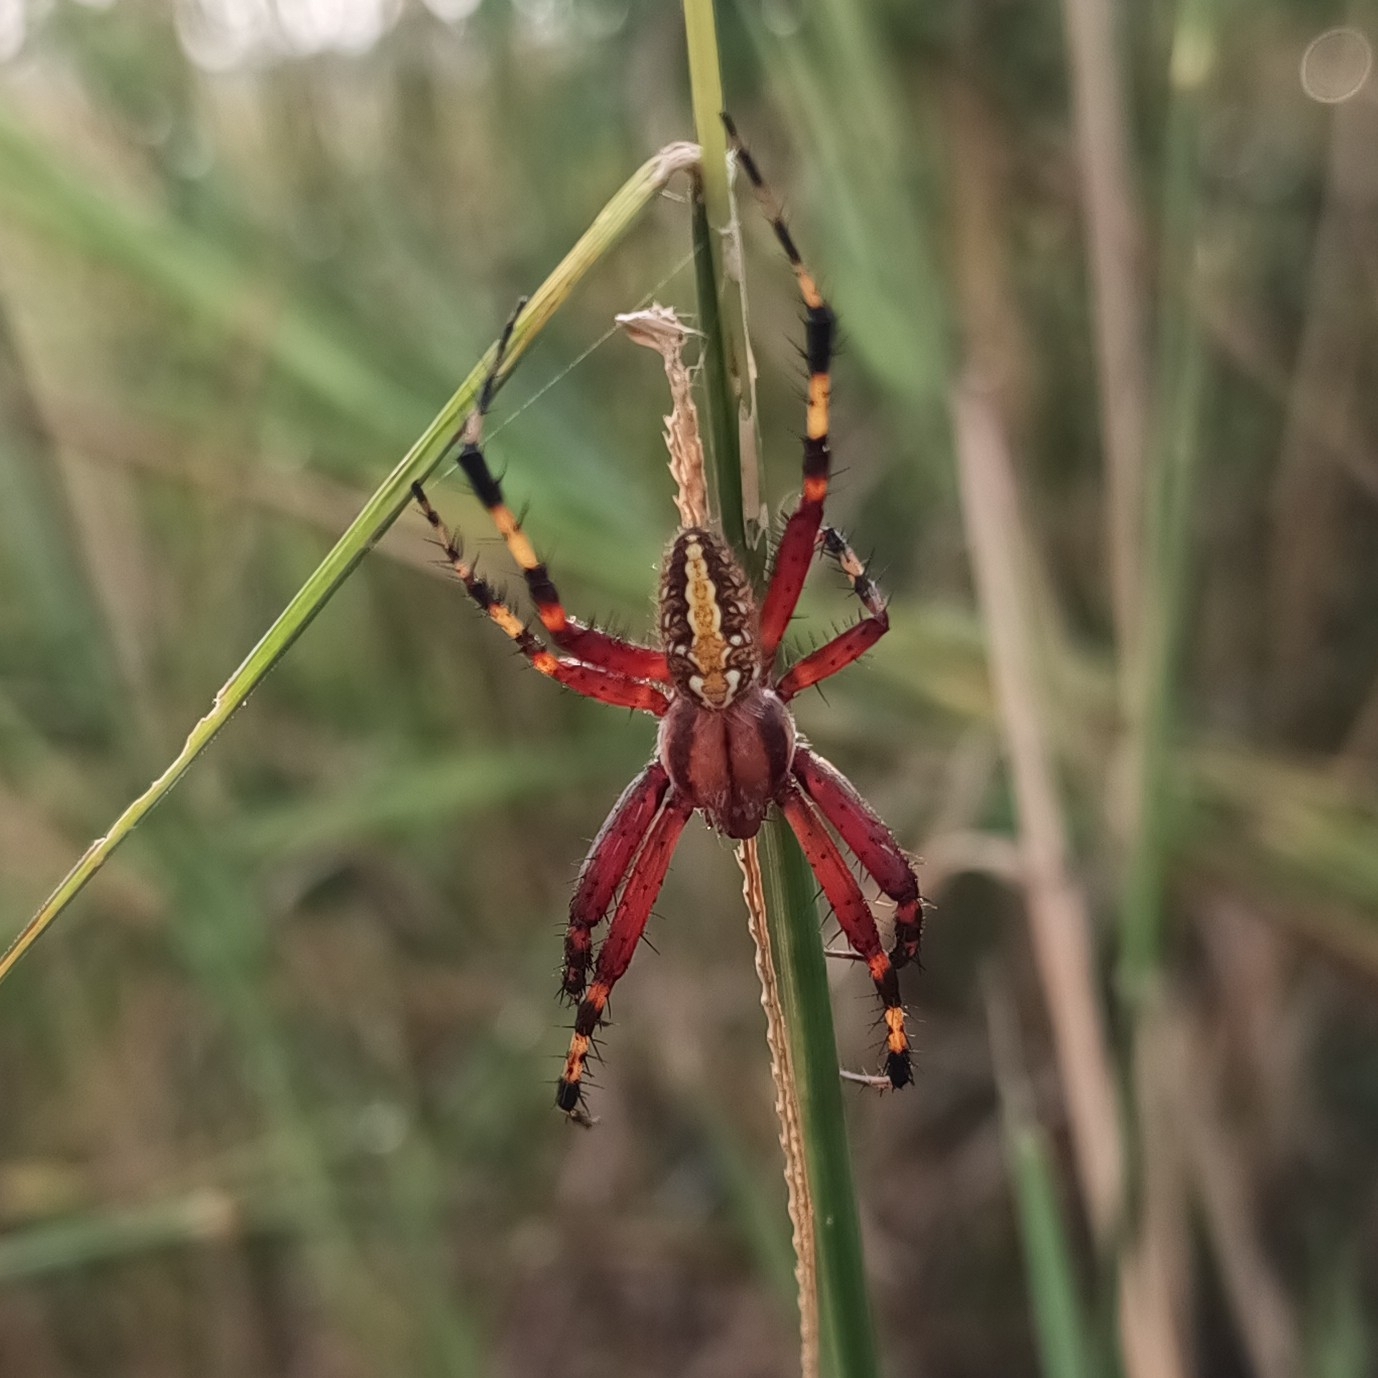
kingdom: Animalia
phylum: Arthropoda
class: Arachnida
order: Araneae
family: Araneidae
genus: Neoscona
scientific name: Neoscona oaxacensis
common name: Orb weavers
